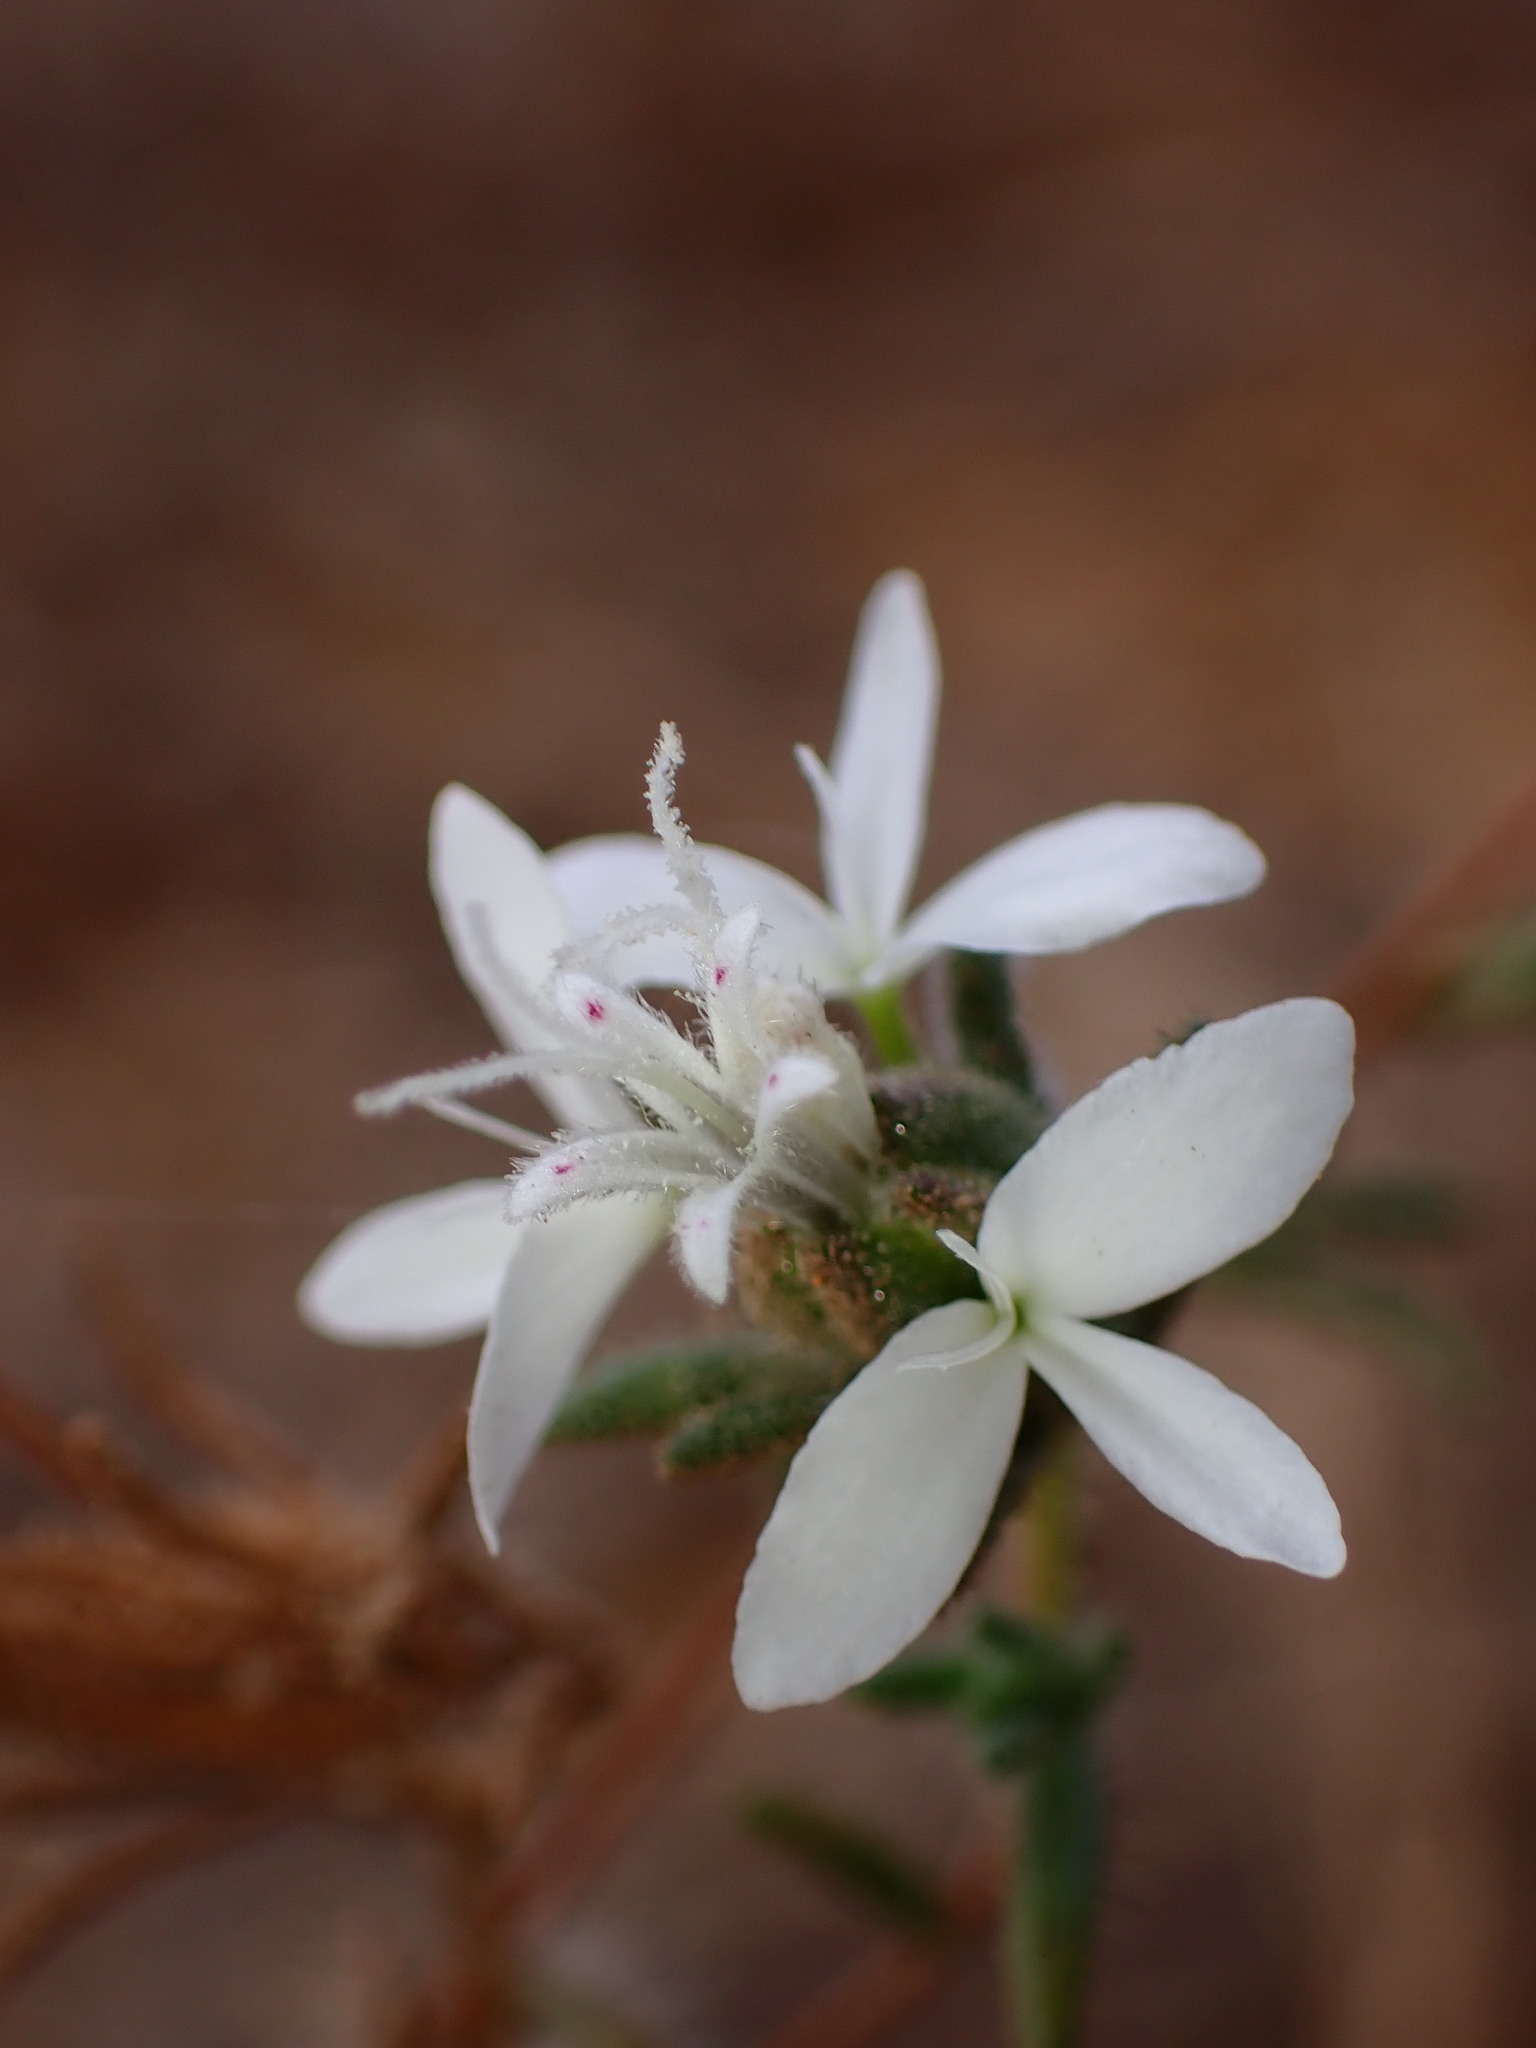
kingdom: Plantae
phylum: Tracheophyta
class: Magnoliopsida
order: Asterales
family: Asteraceae
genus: Osmadenia
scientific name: Osmadenia tenella
